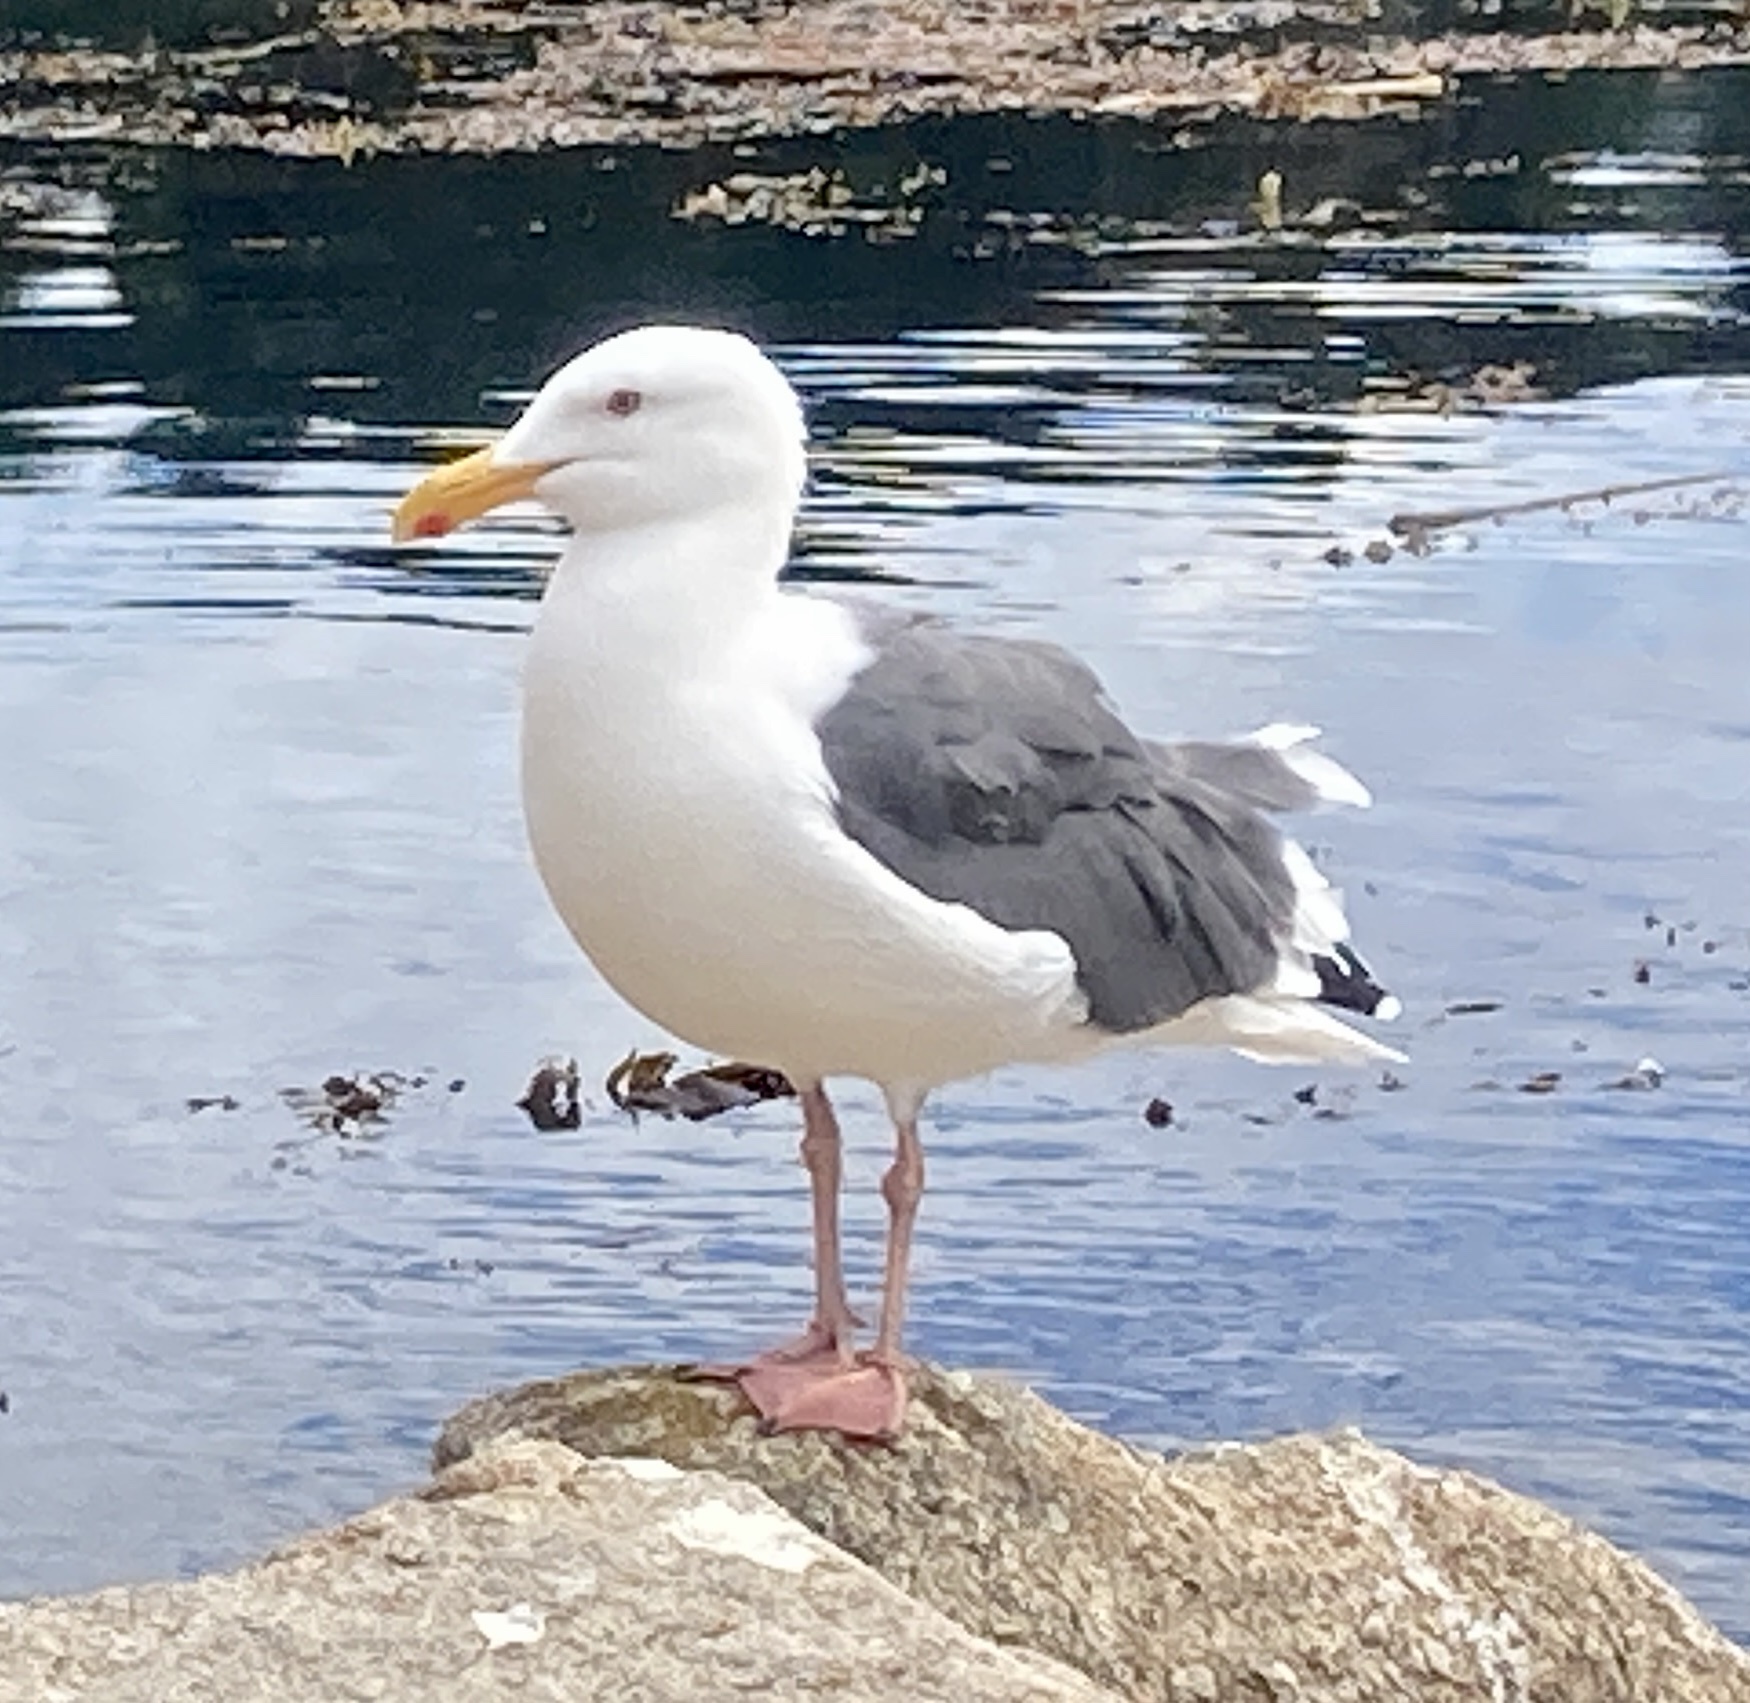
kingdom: Animalia
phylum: Chordata
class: Aves
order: Charadriiformes
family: Laridae
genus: Larus
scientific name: Larus occidentalis
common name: Western gull
